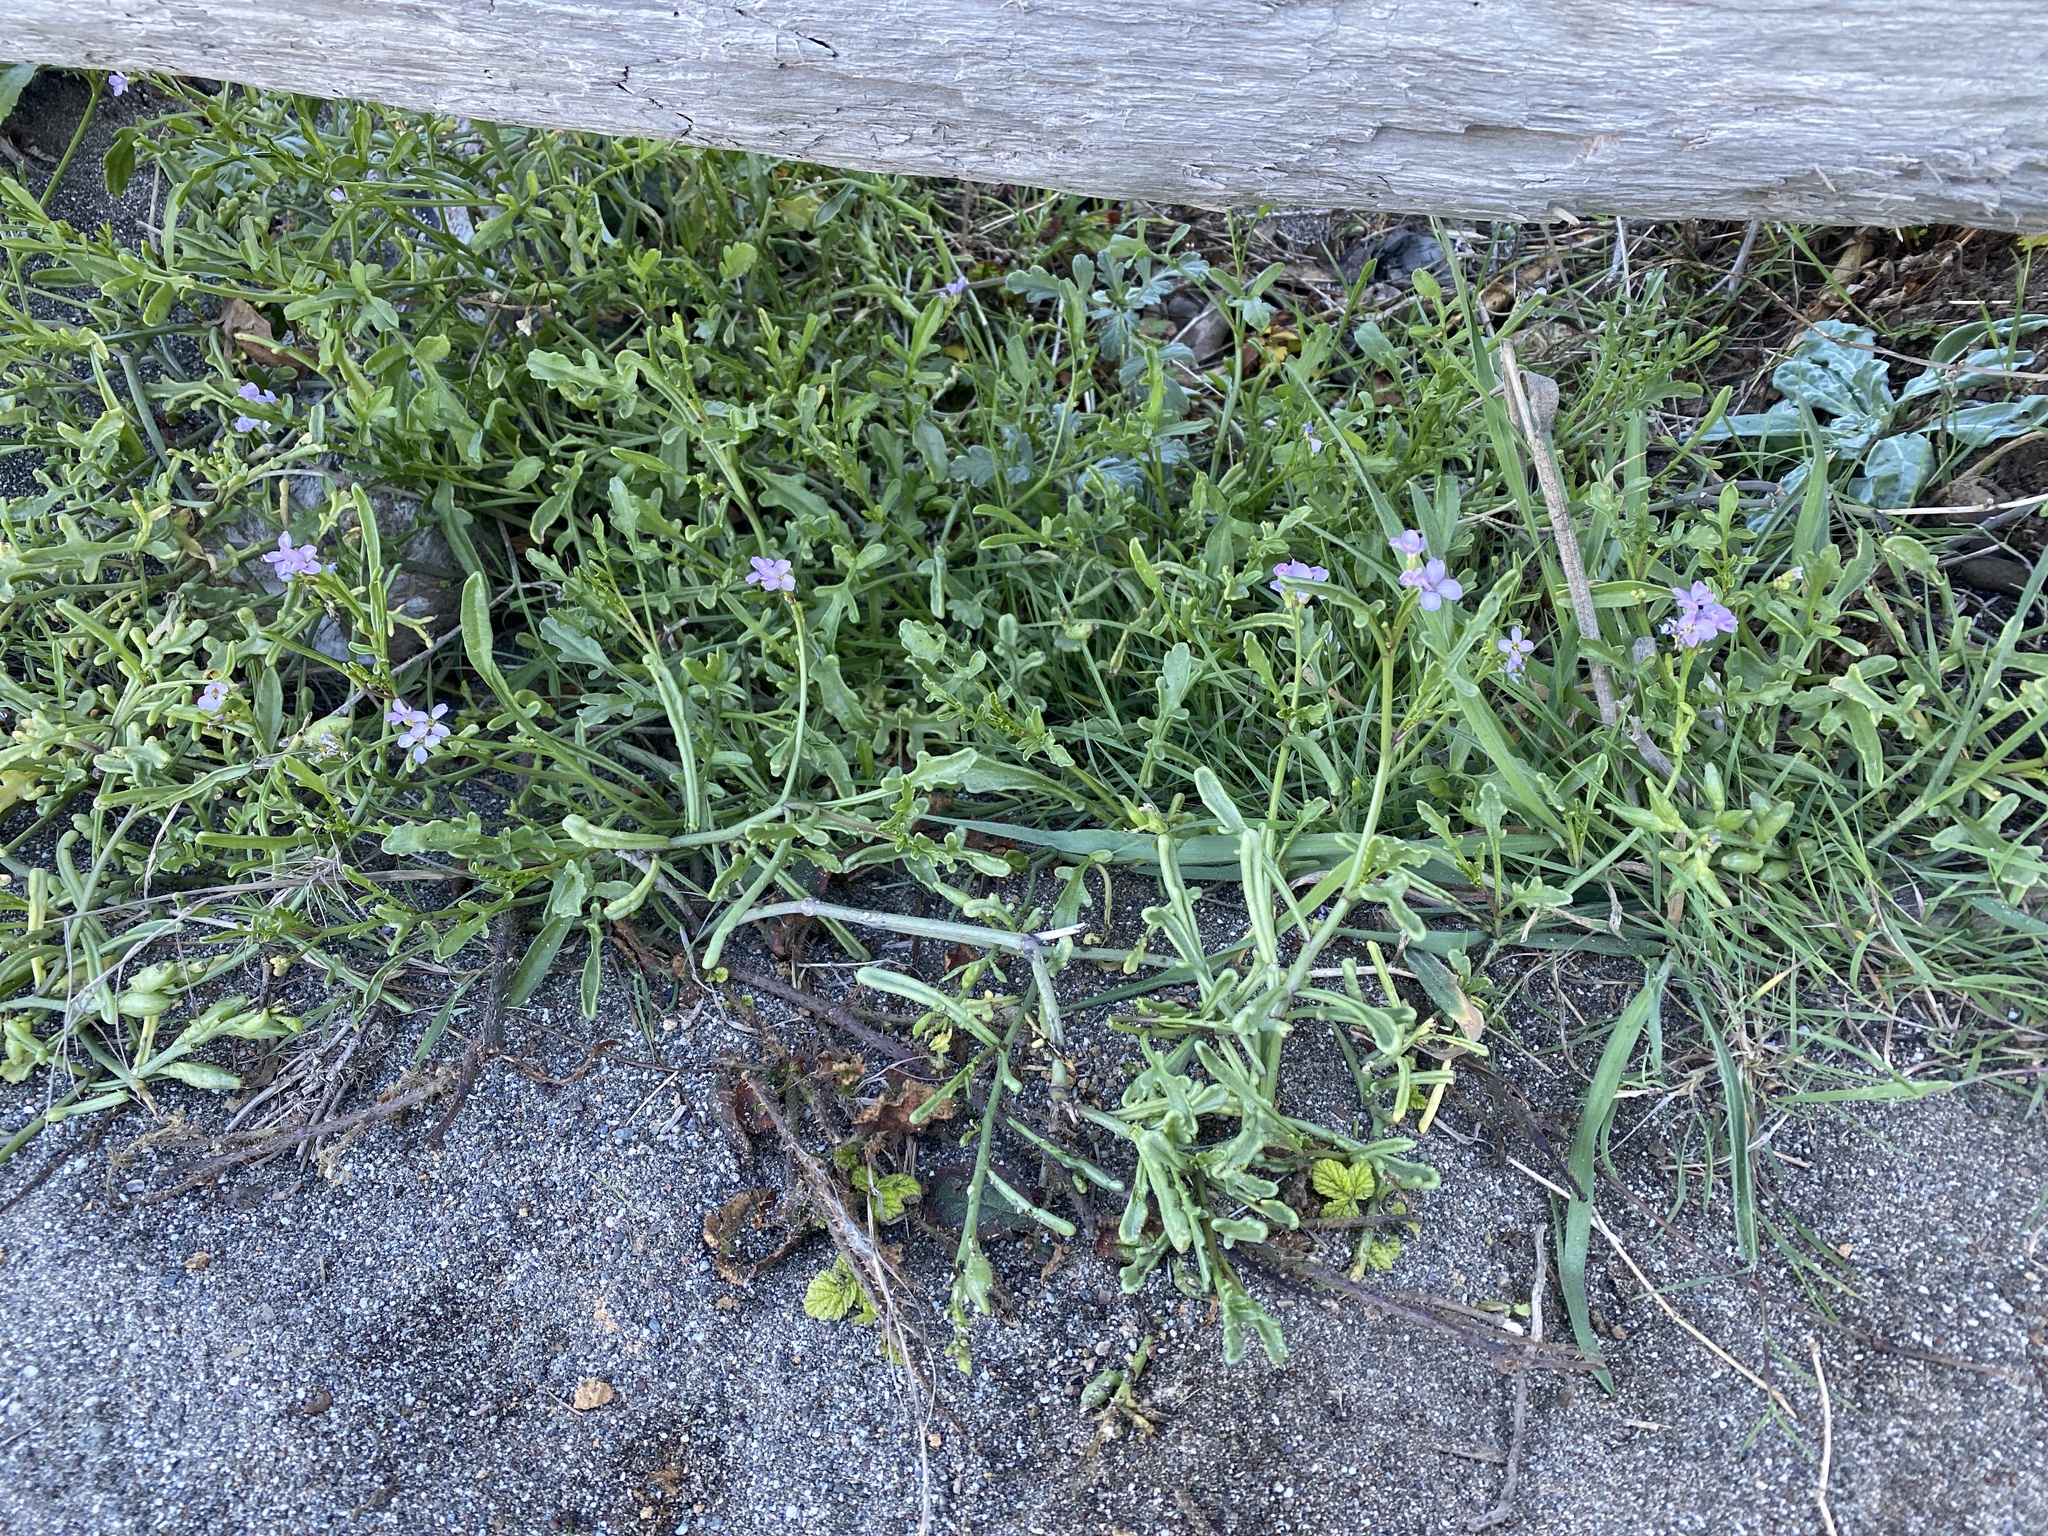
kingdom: Plantae
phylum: Tracheophyta
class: Magnoliopsida
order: Brassicales
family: Brassicaceae
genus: Cakile
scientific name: Cakile maritima
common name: Sea rocket
